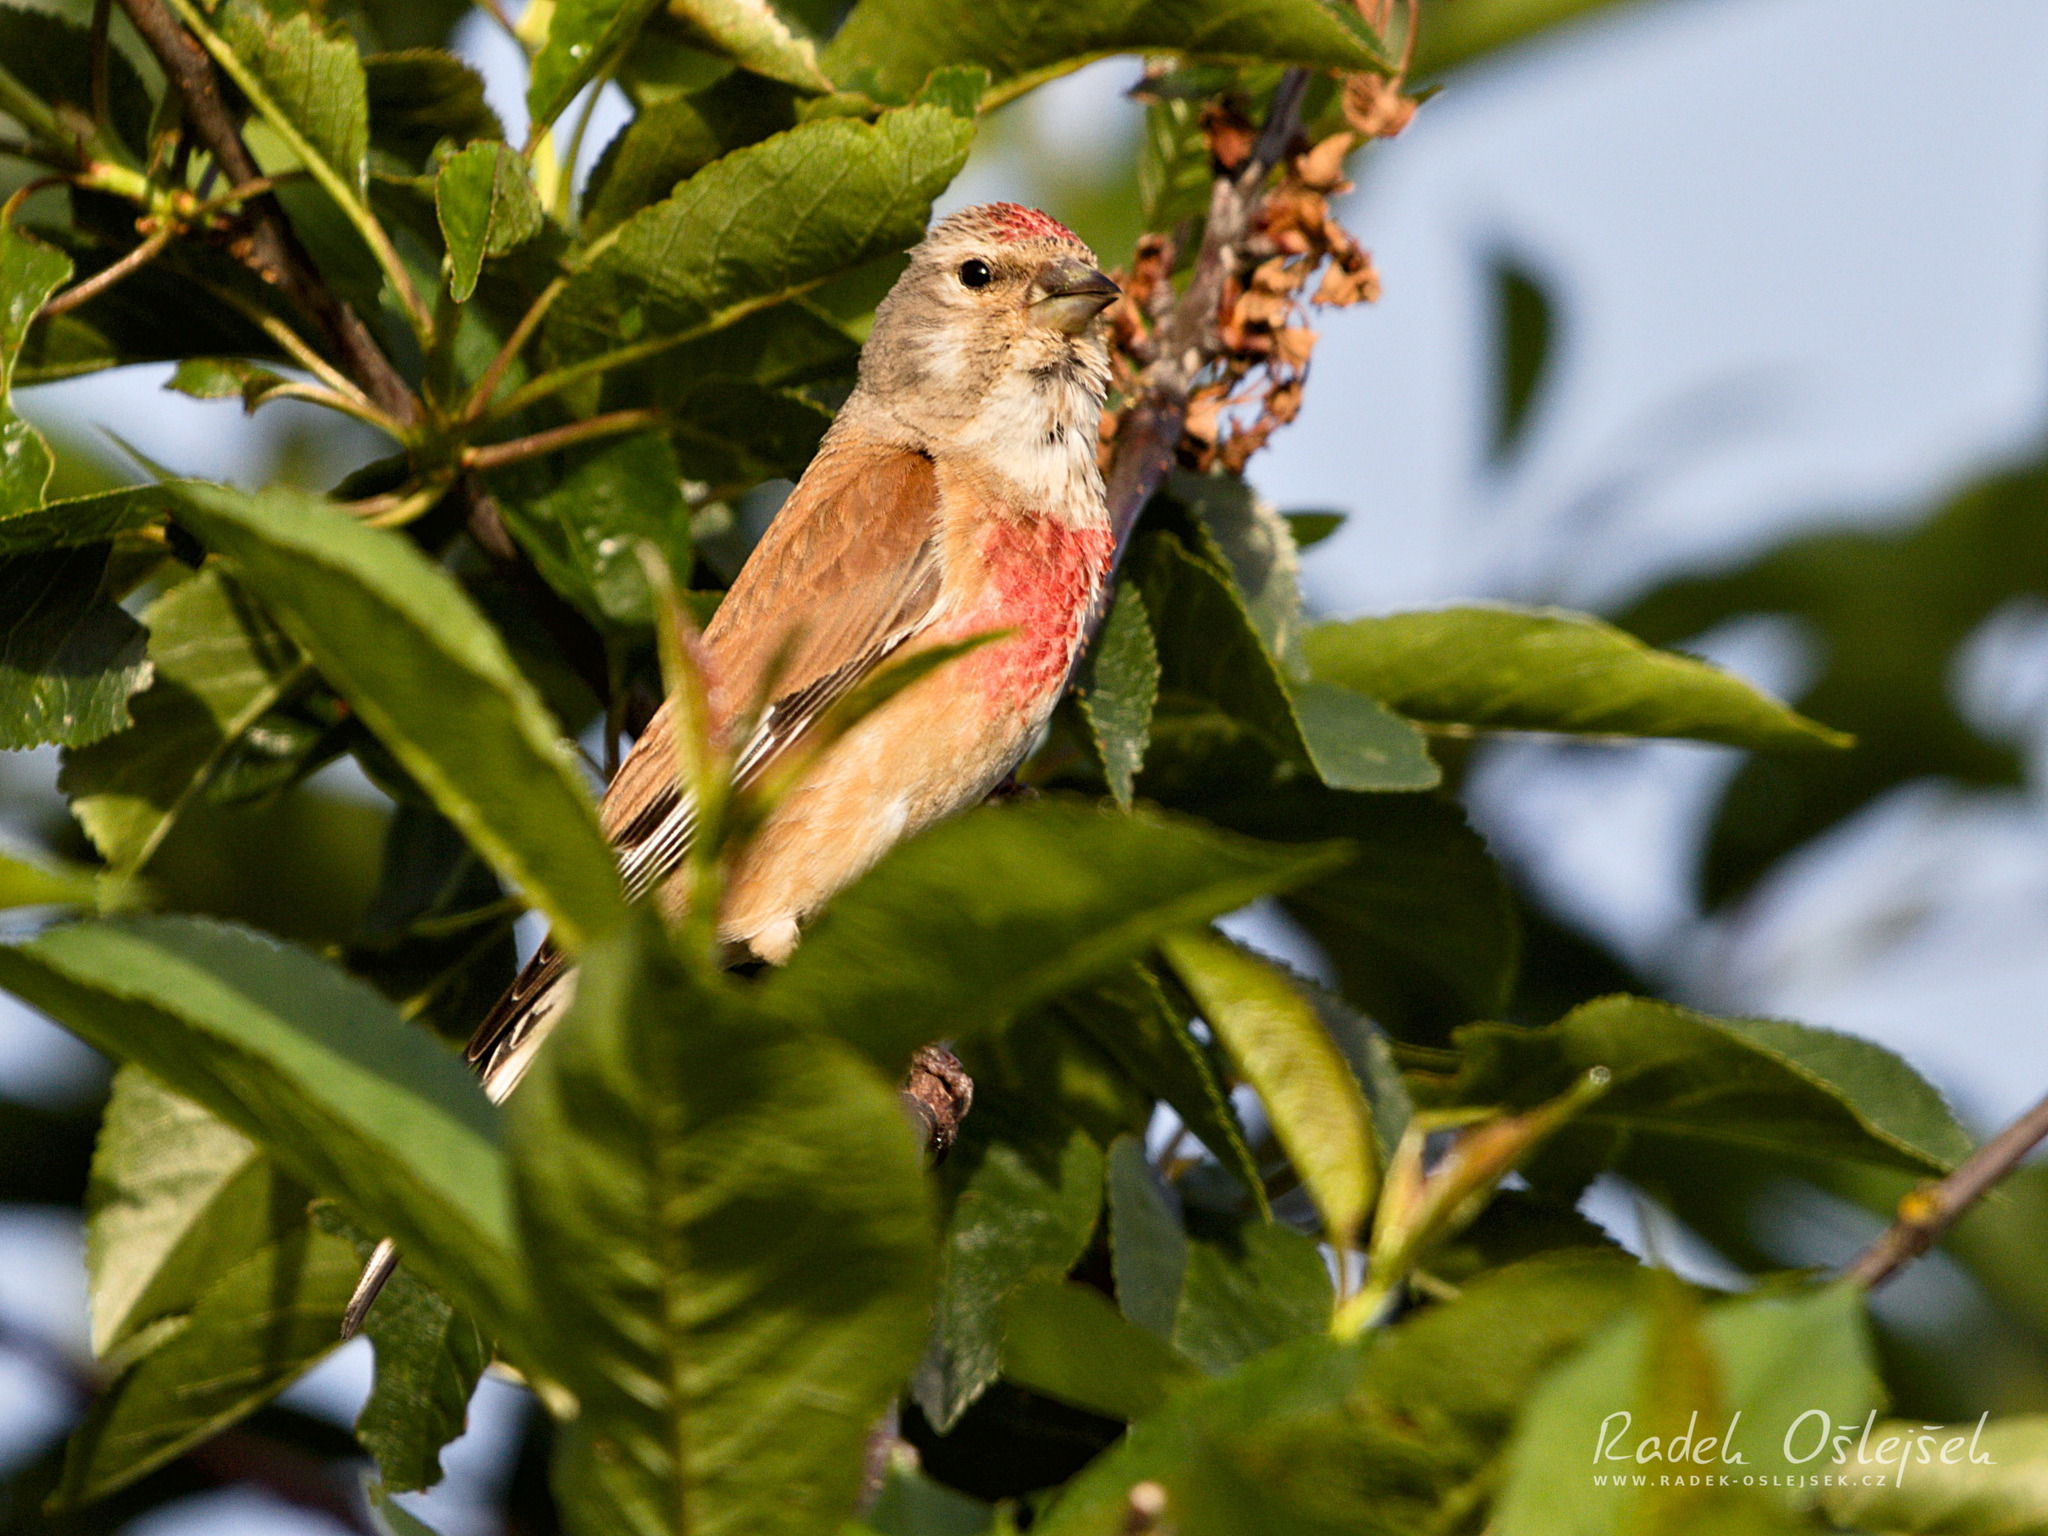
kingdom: Animalia
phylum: Chordata
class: Aves
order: Passeriformes
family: Fringillidae
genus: Linaria
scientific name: Linaria cannabina
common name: Common linnet
